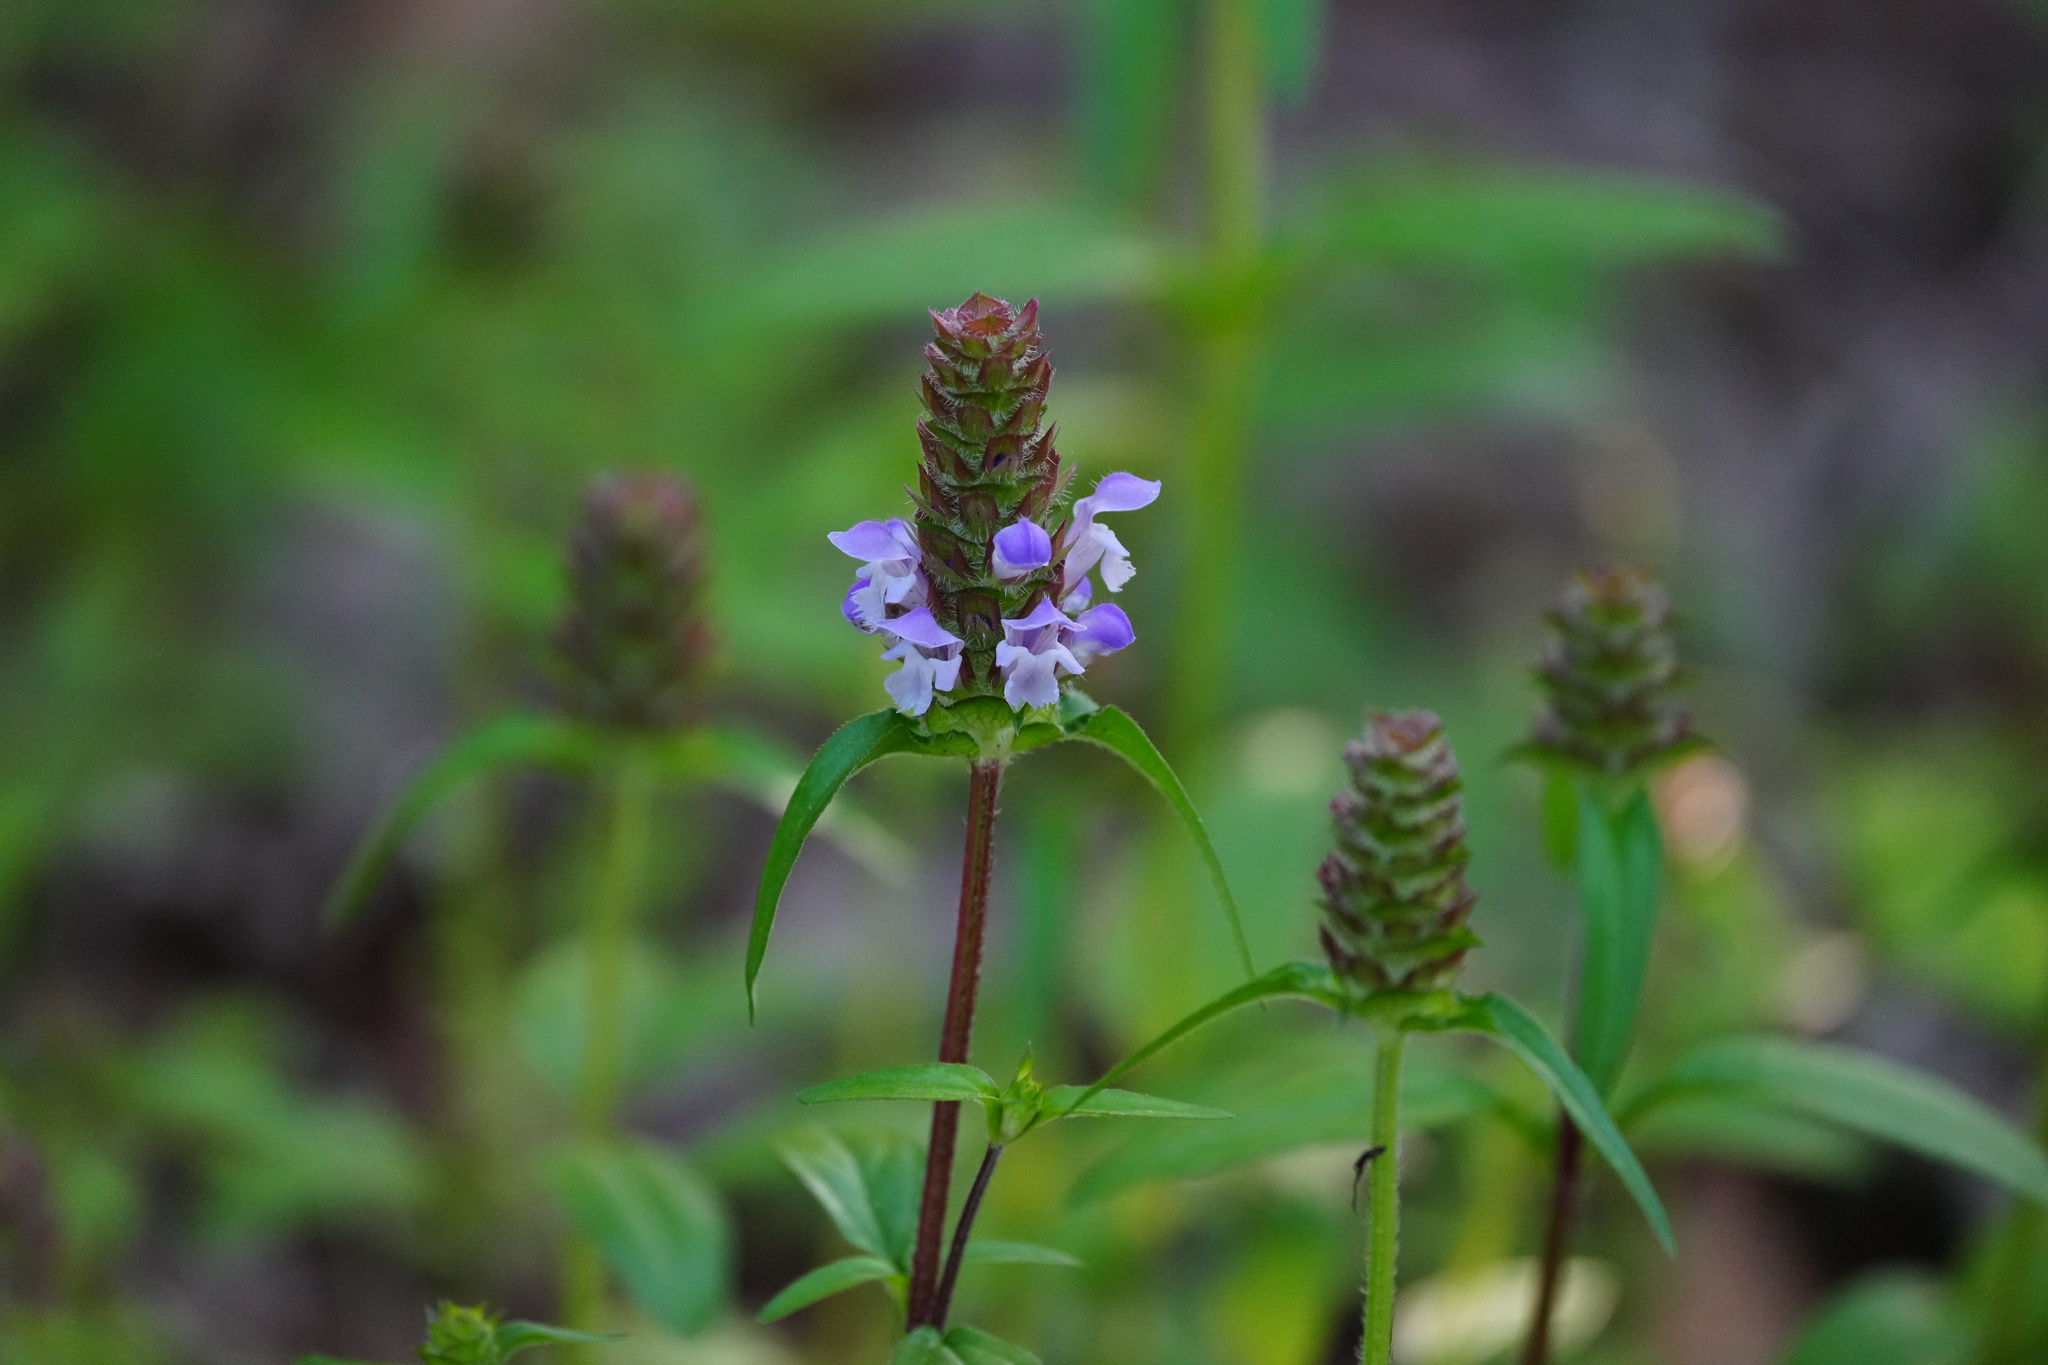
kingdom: Plantae
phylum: Tracheophyta
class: Magnoliopsida
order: Lamiales
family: Lamiaceae
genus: Prunella
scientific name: Prunella vulgaris
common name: Heal-all
